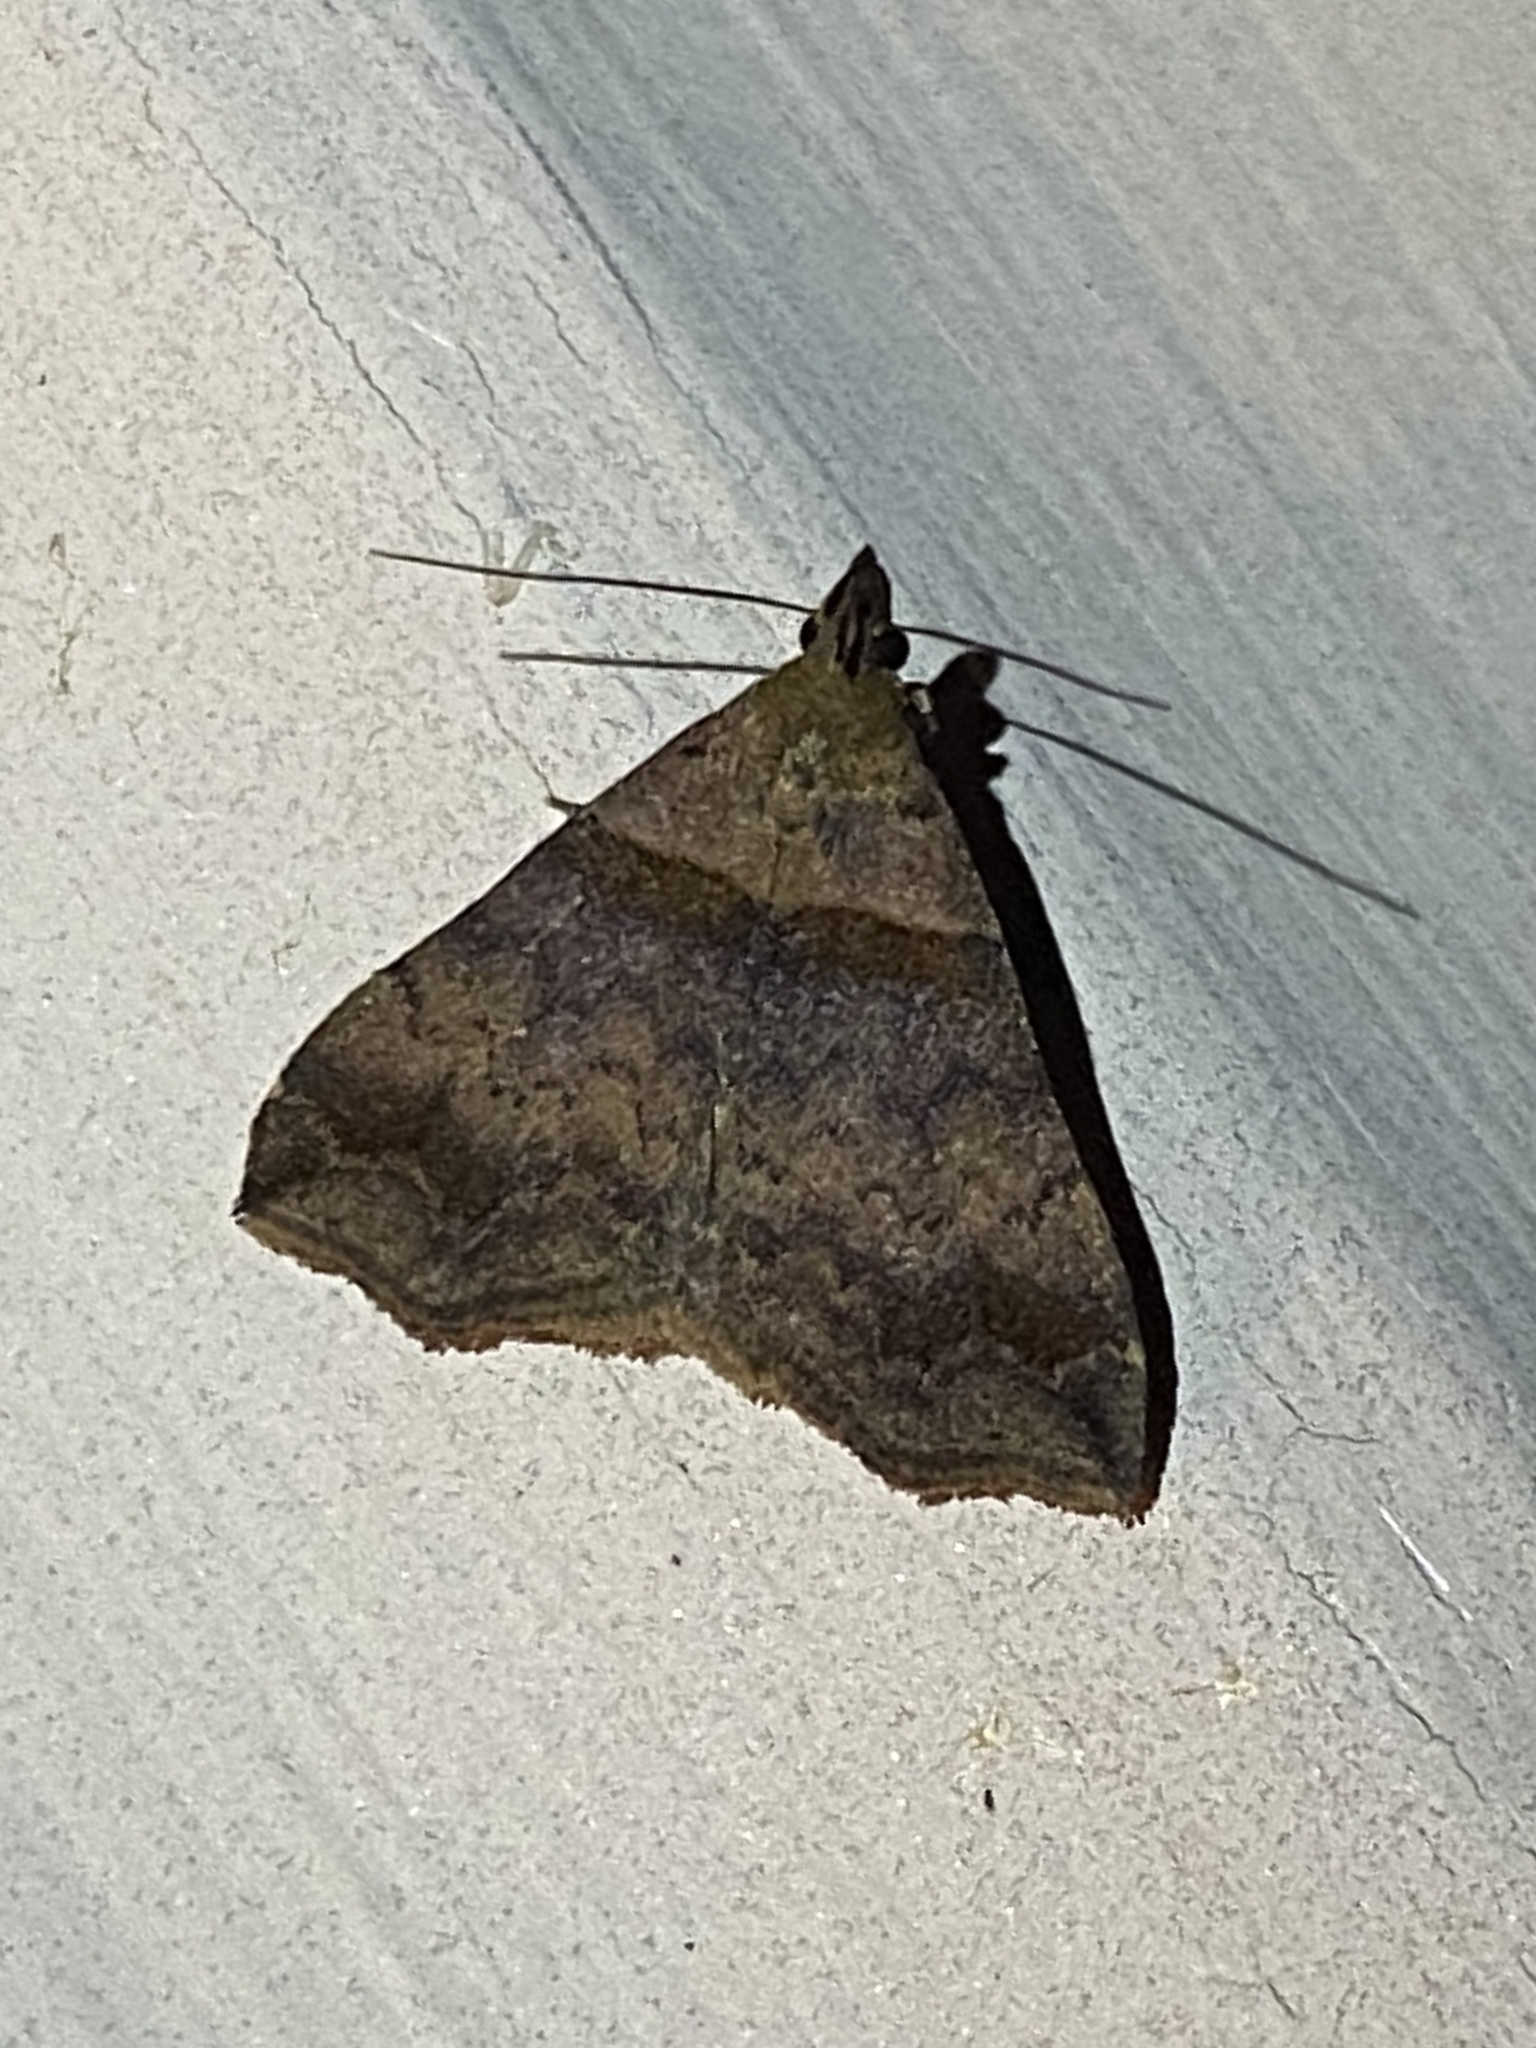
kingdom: Animalia
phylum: Arthropoda
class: Insecta
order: Lepidoptera
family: Erebidae
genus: Lascoria
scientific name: Lascoria ambigualis
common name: Ambiguous moth
